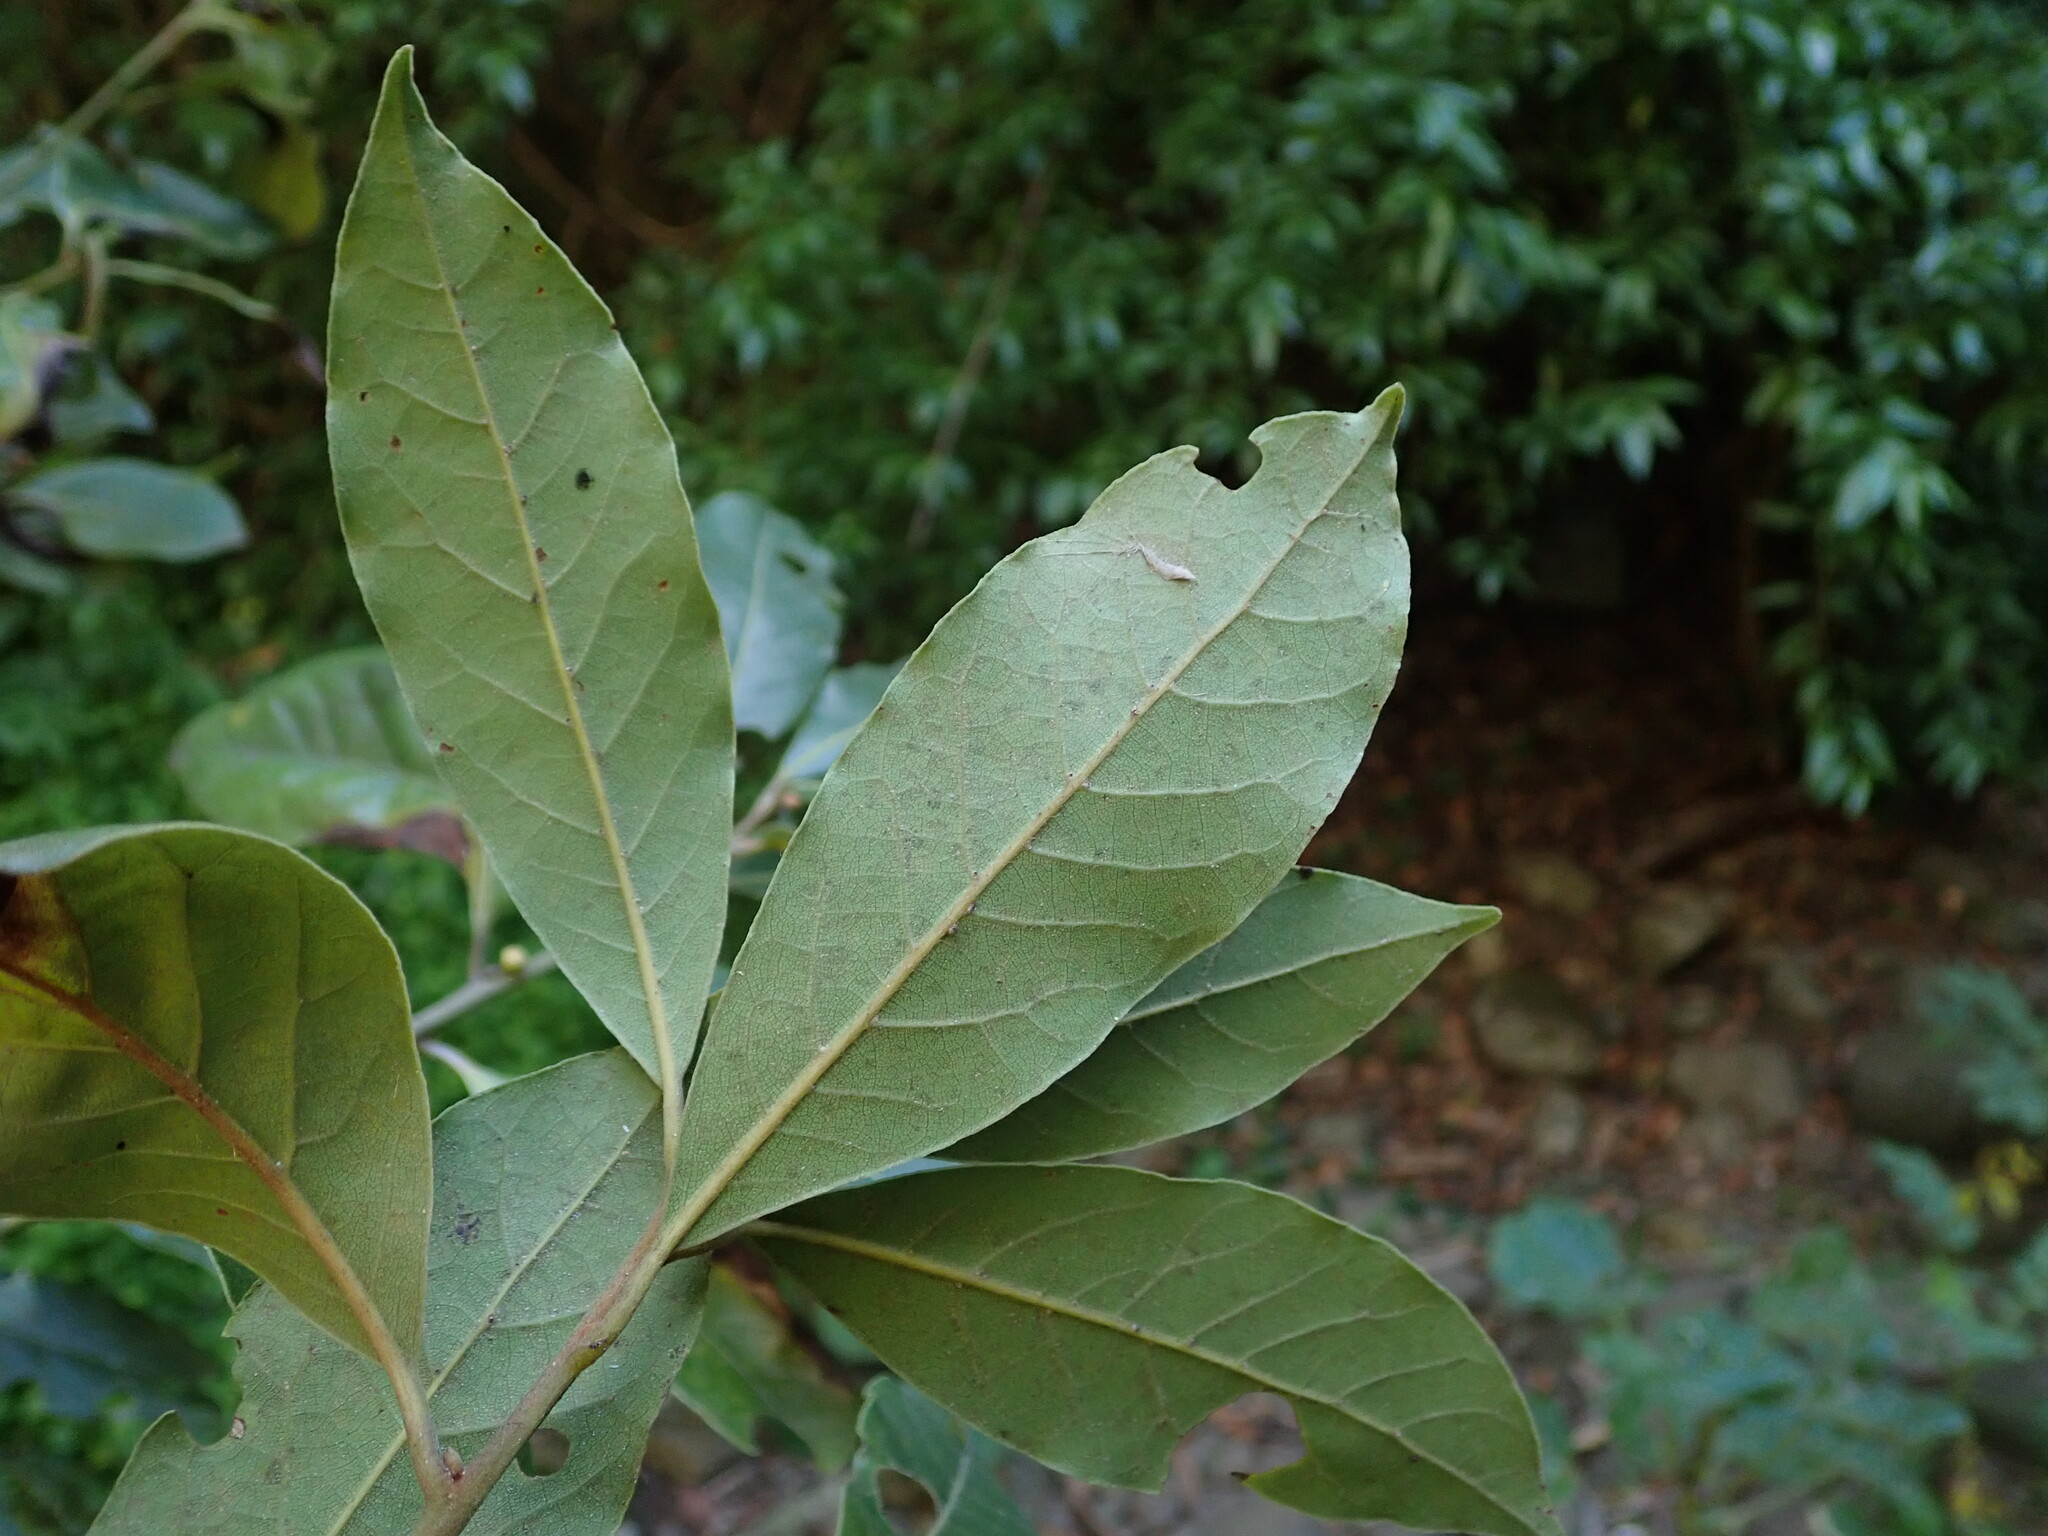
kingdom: Plantae
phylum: Tracheophyta
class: Magnoliopsida
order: Laurales
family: Lauraceae
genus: Laurus
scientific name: Laurus novocanariensis
